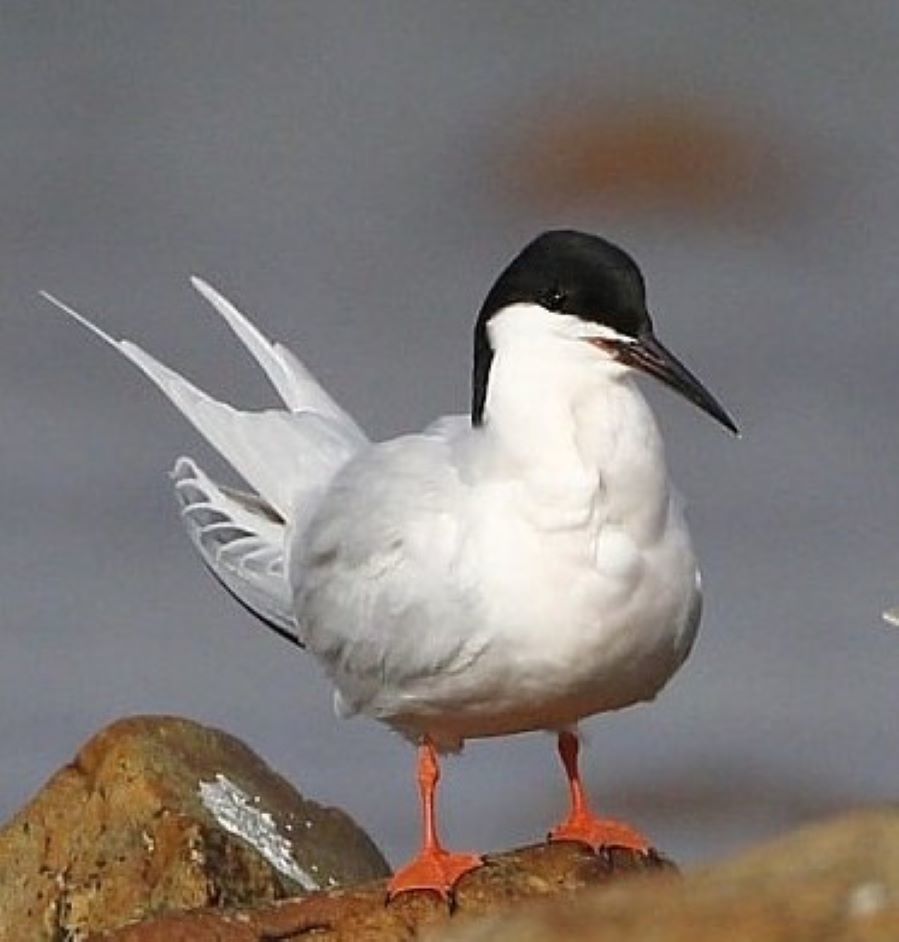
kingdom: Animalia
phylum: Chordata
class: Aves
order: Charadriiformes
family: Laridae
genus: Sterna
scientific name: Sterna dougallii
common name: Roseate tern
